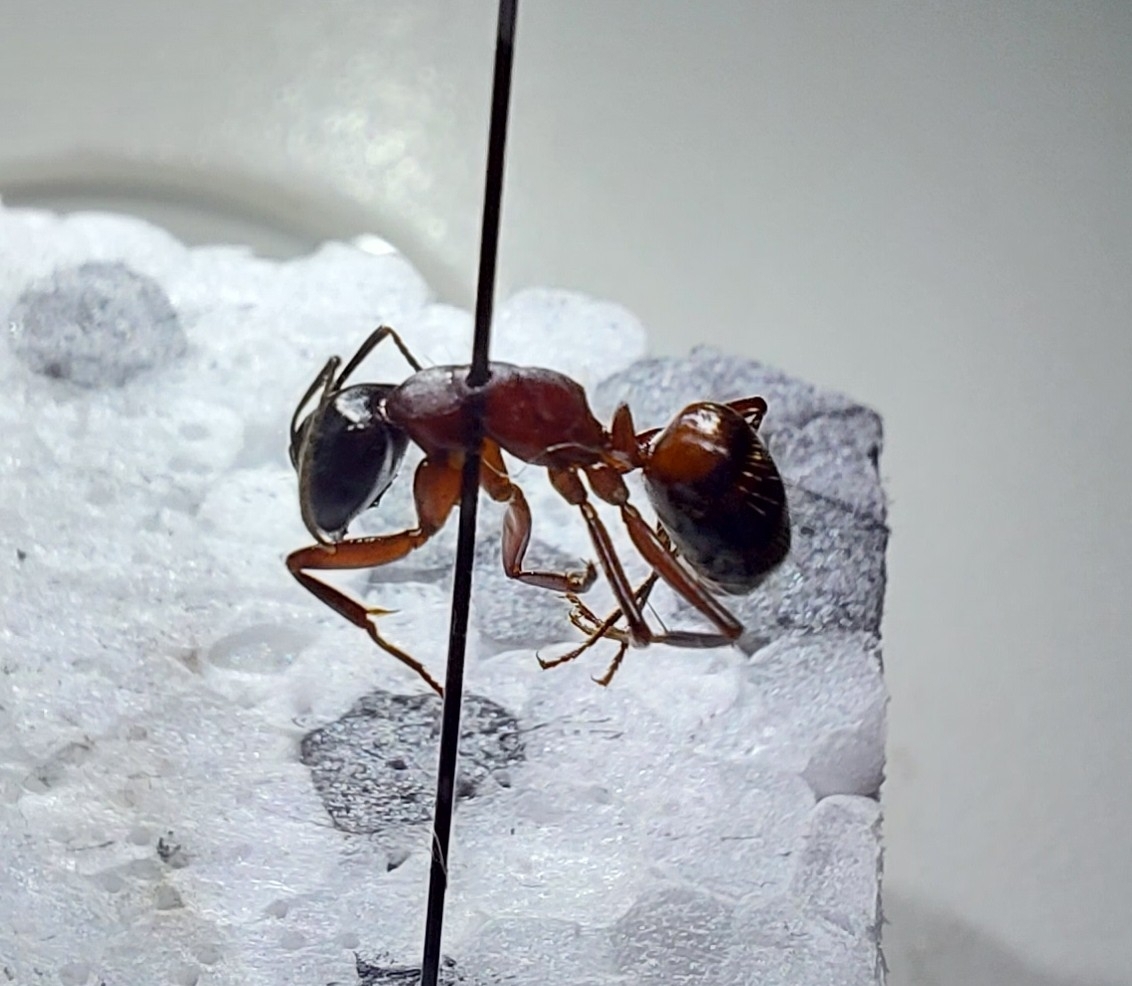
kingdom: Animalia
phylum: Arthropoda
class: Insecta
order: Hymenoptera
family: Formicidae
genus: Camponotus
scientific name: Camponotus ligniperdus
